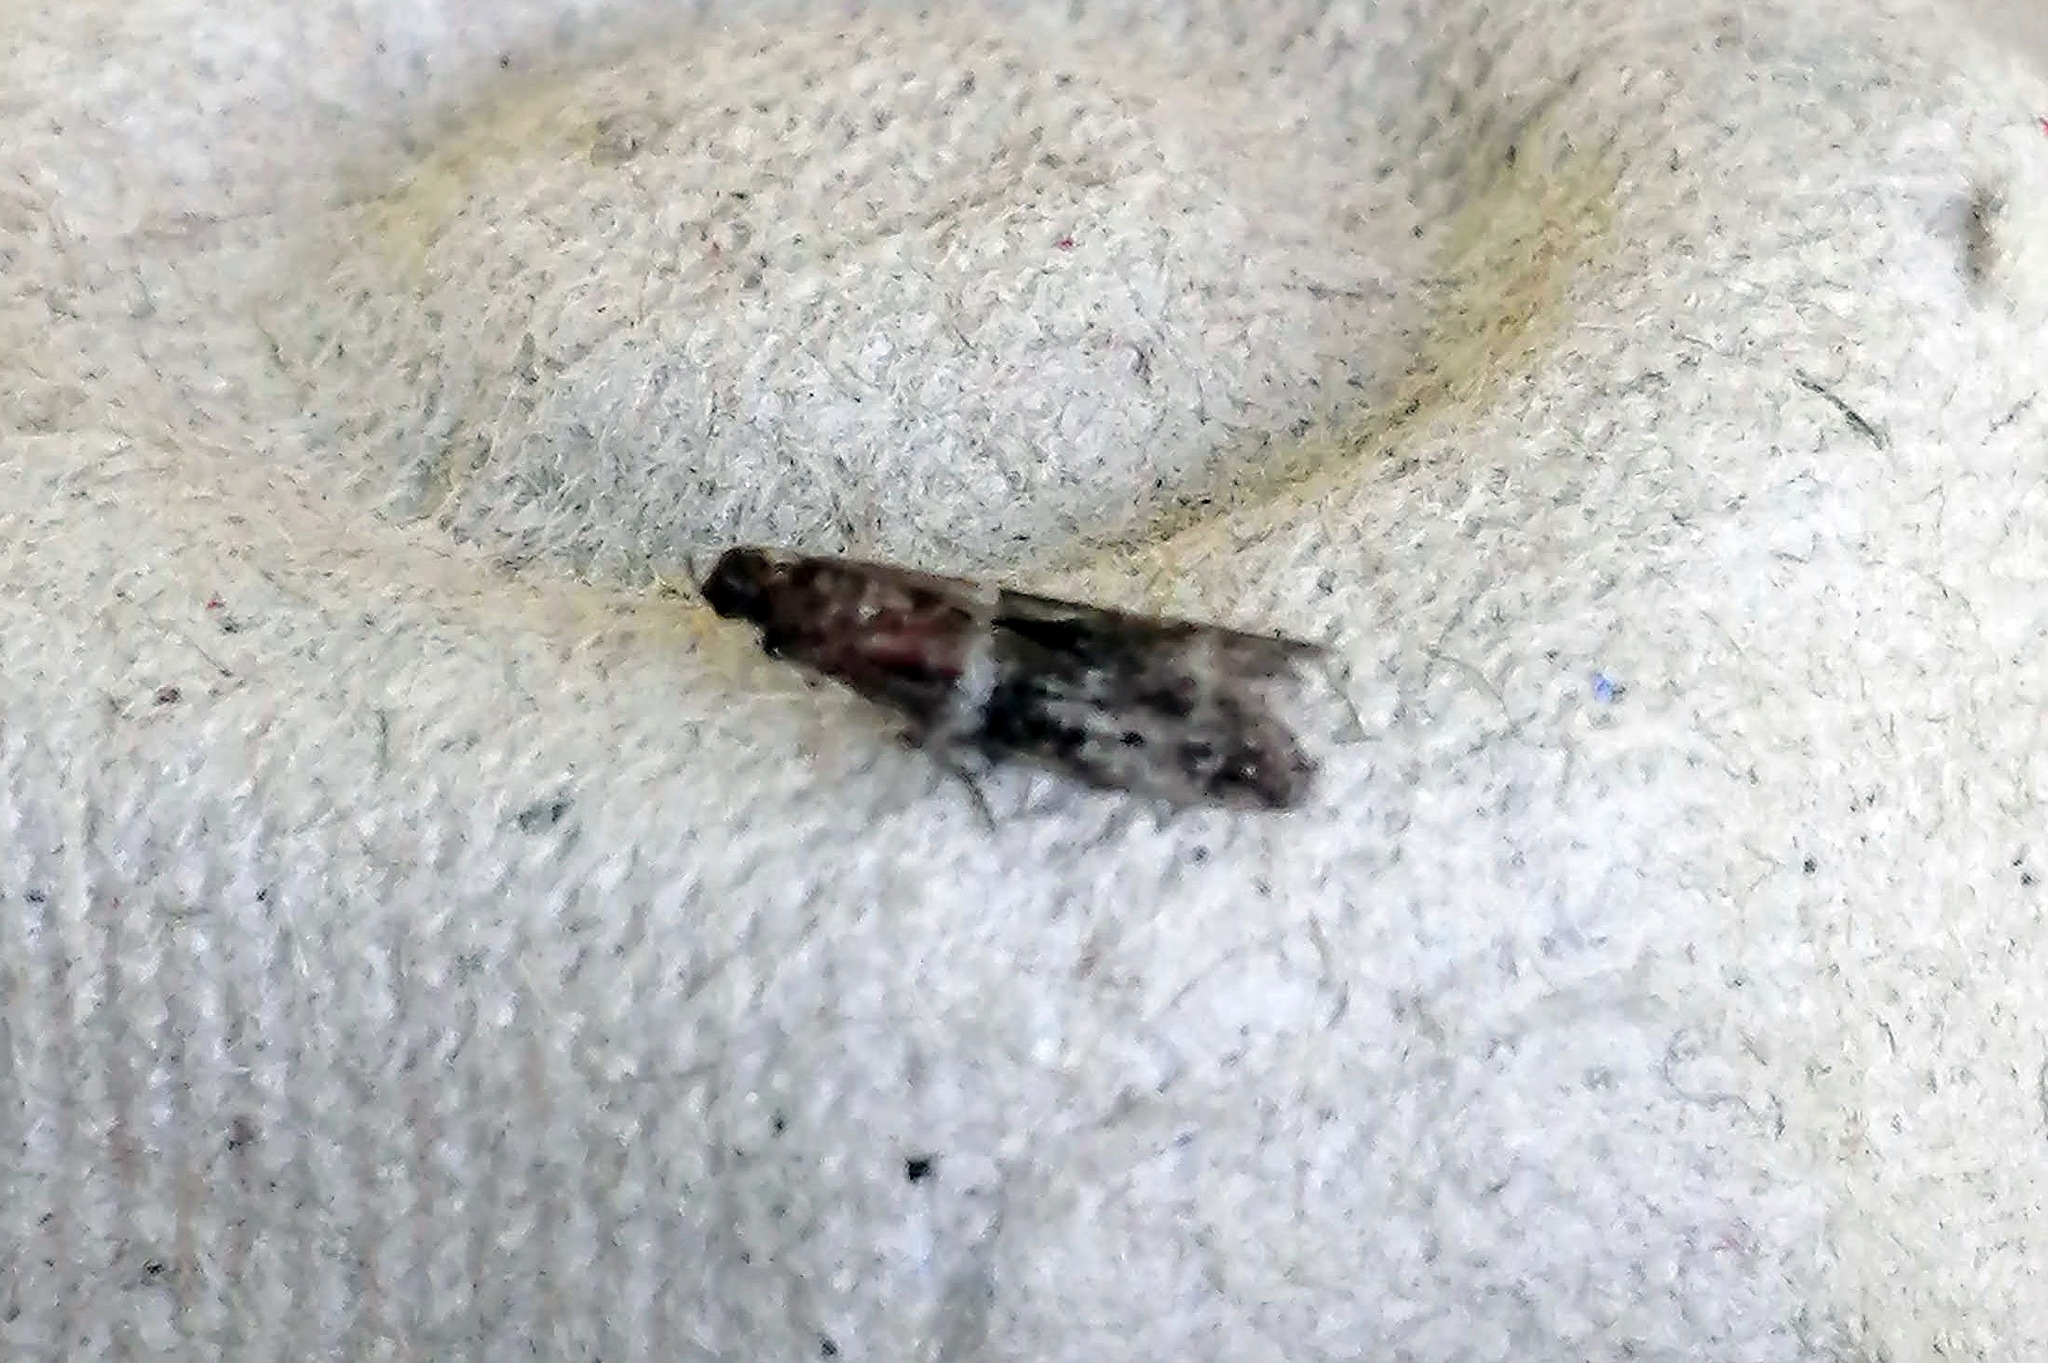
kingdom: Animalia
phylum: Arthropoda
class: Insecta
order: Lepidoptera
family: Pyralidae
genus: Moodna
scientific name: Moodna ostrinella
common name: Darker moodna moth
